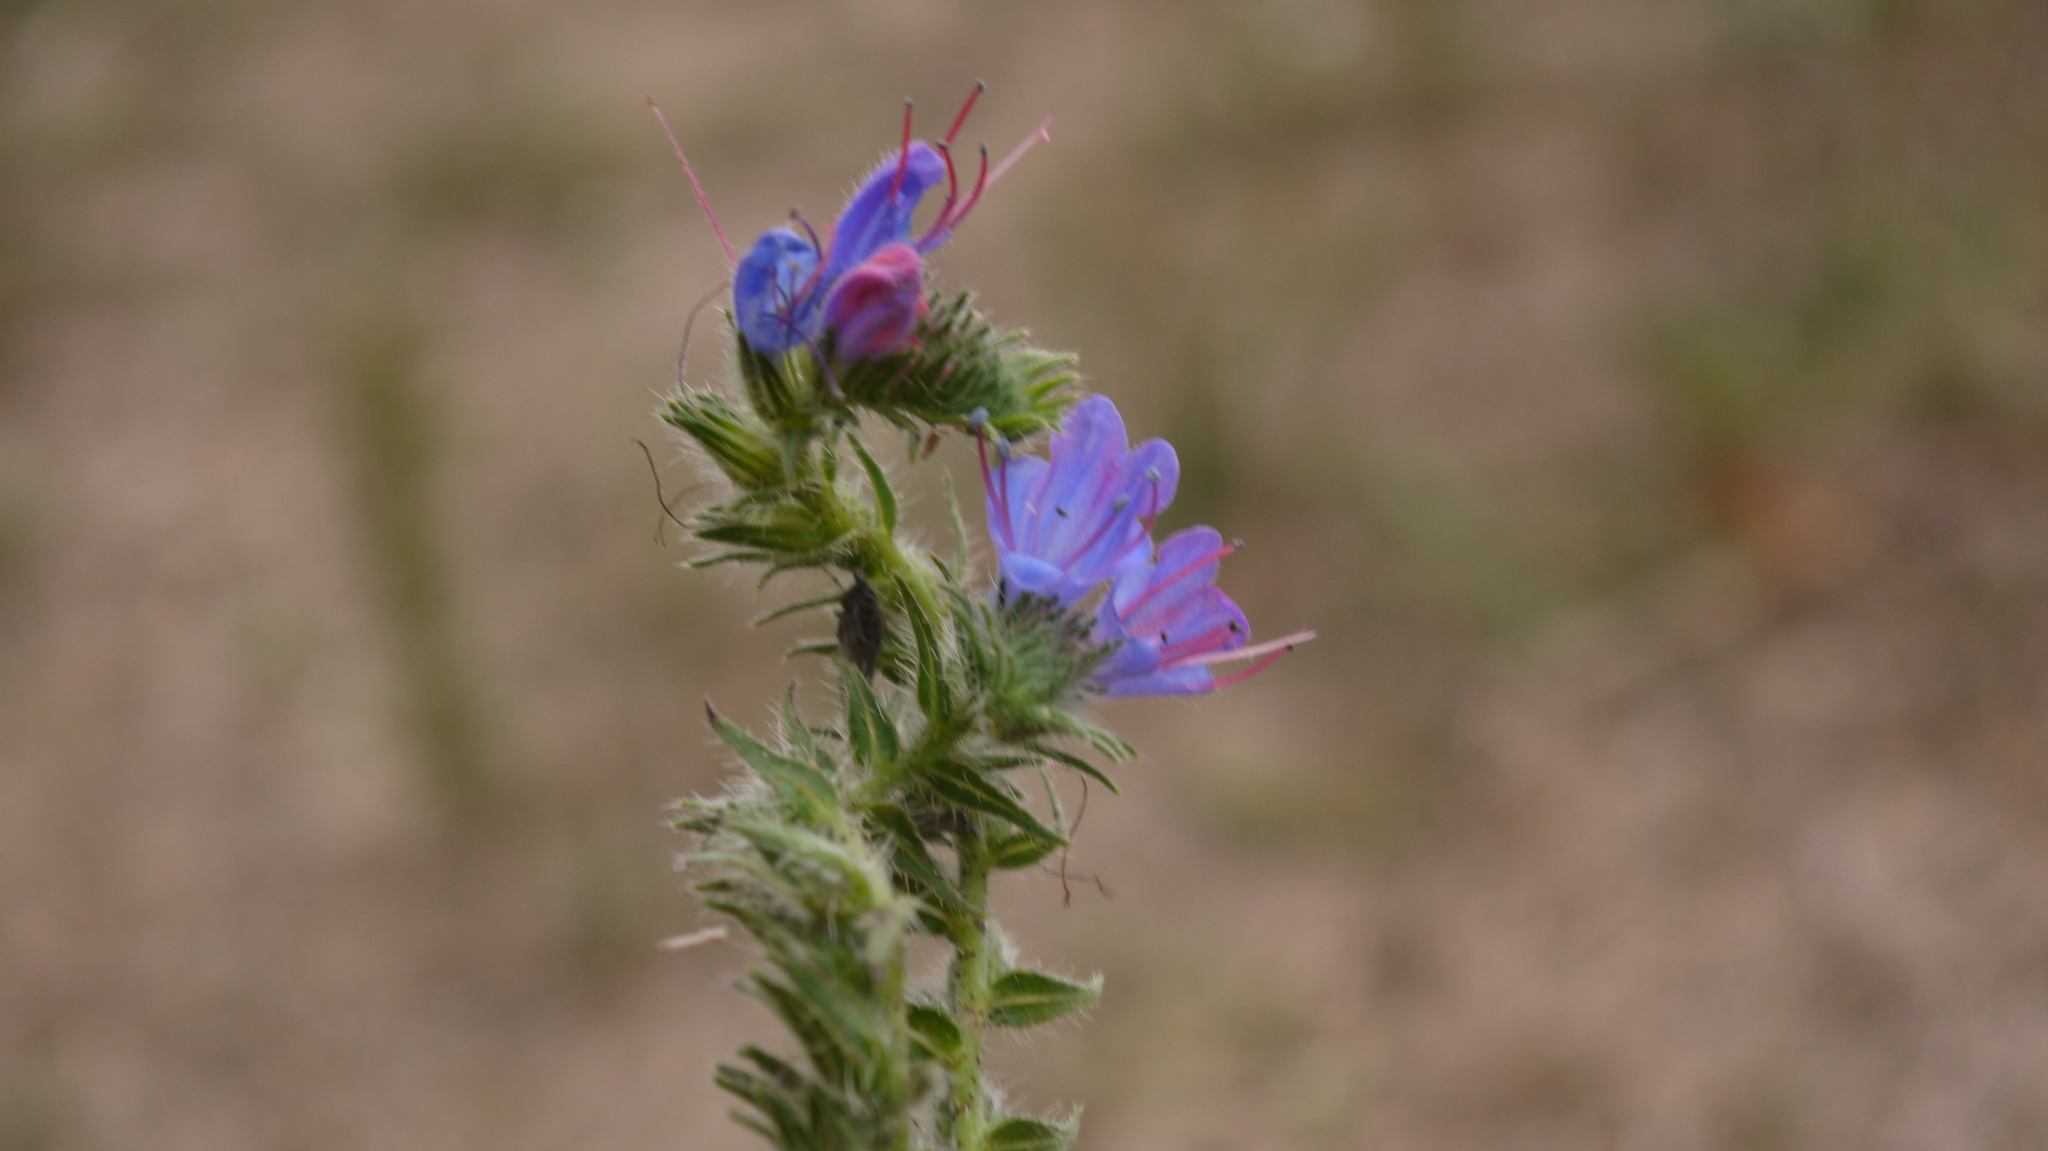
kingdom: Plantae
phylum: Tracheophyta
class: Magnoliopsida
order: Boraginales
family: Boraginaceae
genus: Echium
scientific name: Echium vulgare
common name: Common viper's bugloss
